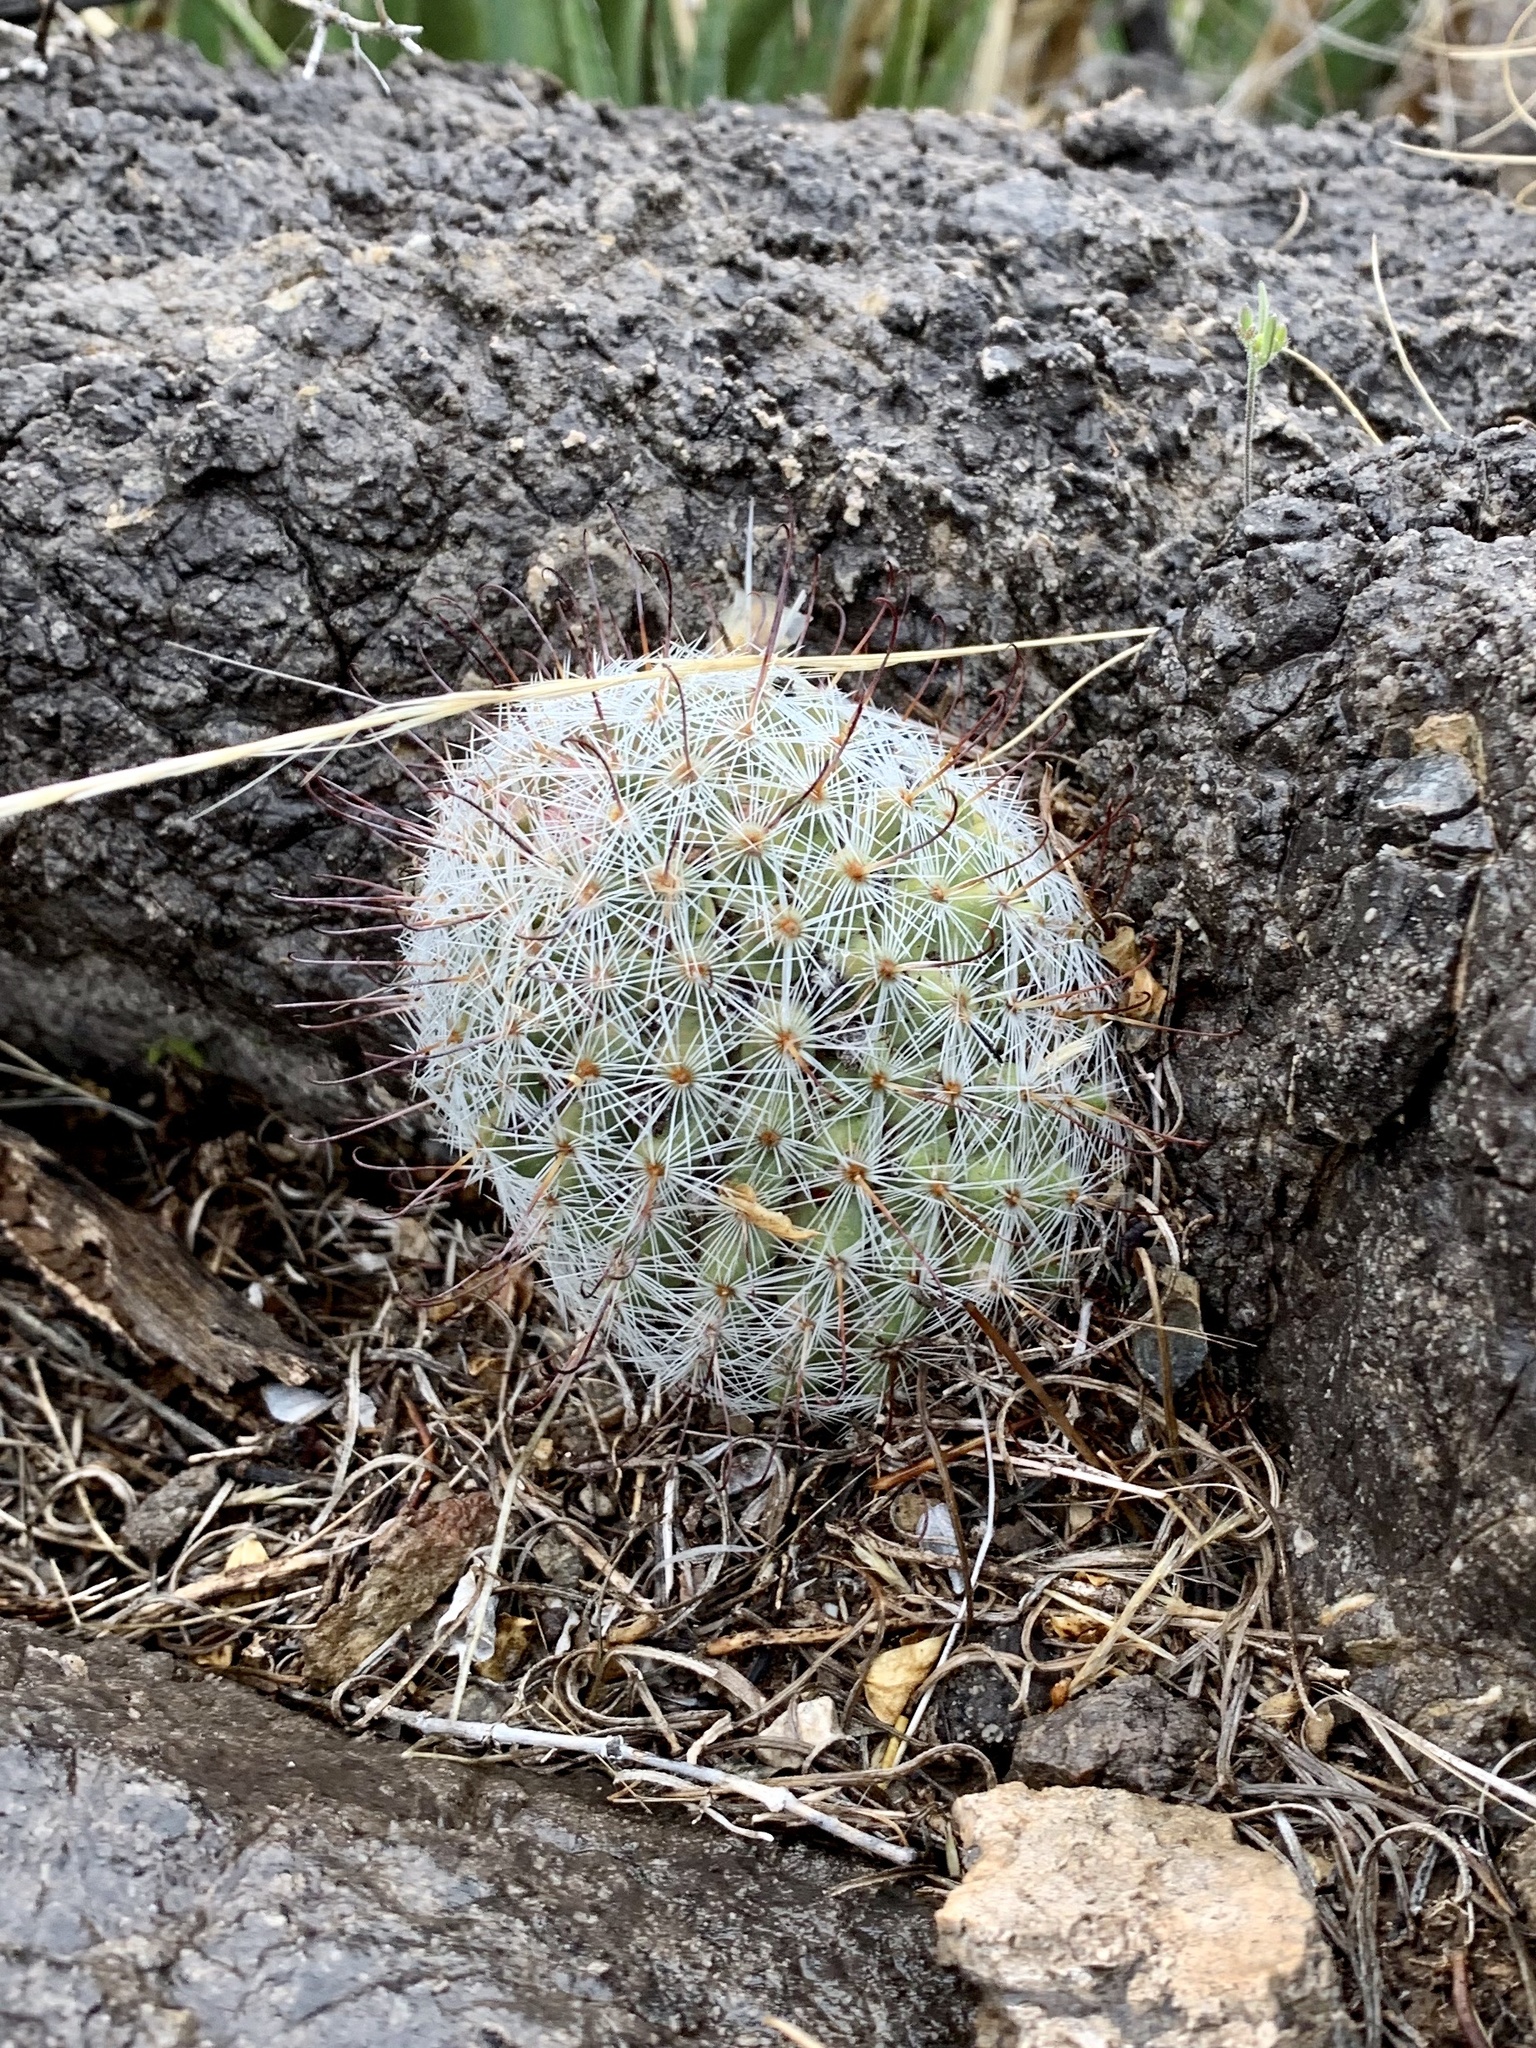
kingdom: Plantae
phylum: Tracheophyta
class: Magnoliopsida
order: Caryophyllales
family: Cactaceae
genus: Cochemiea
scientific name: Cochemiea grahamii
